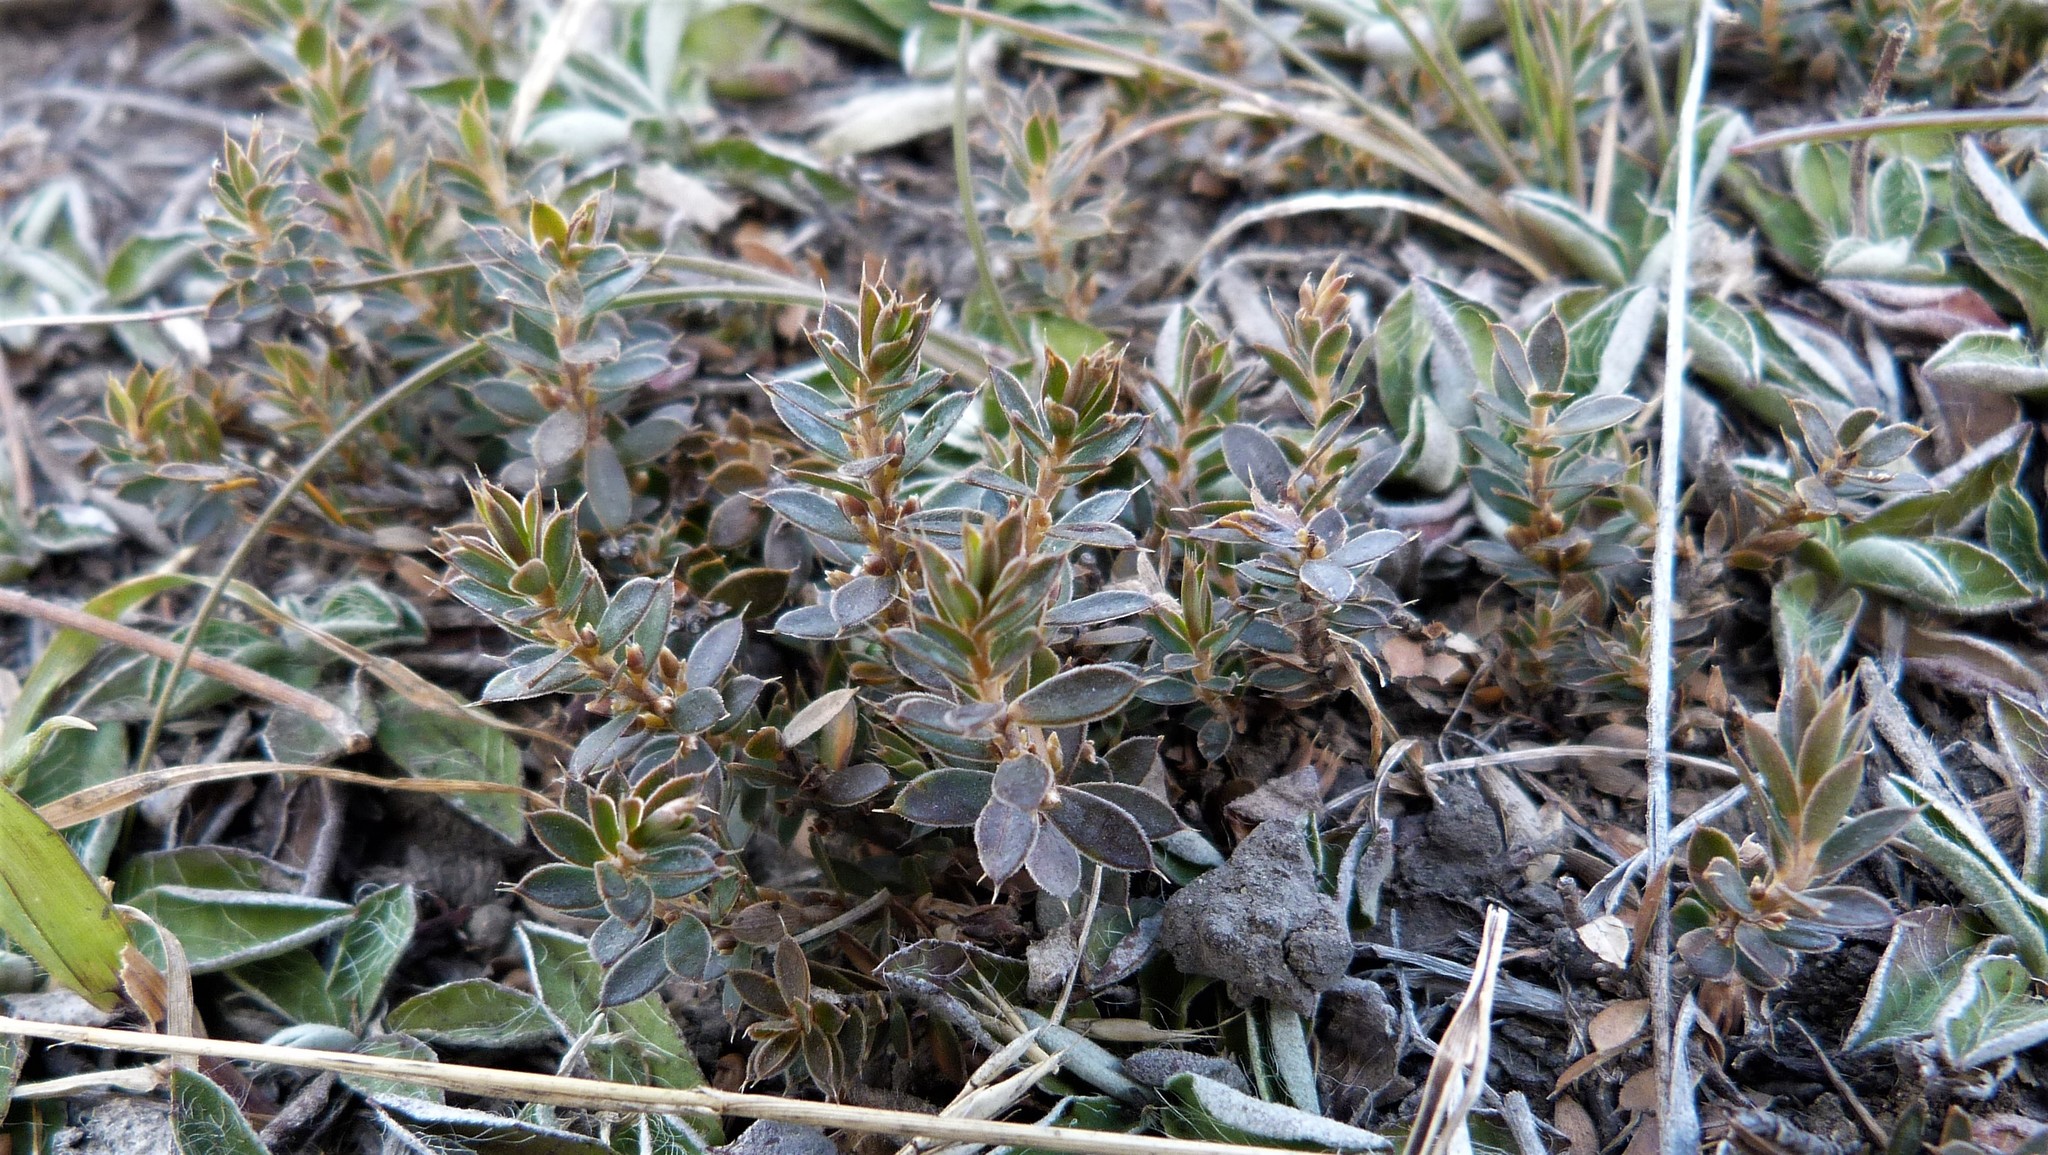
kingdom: Plantae
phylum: Tracheophyta
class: Magnoliopsida
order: Ericales
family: Ericaceae
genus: Styphelia
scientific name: Styphelia nesophila
